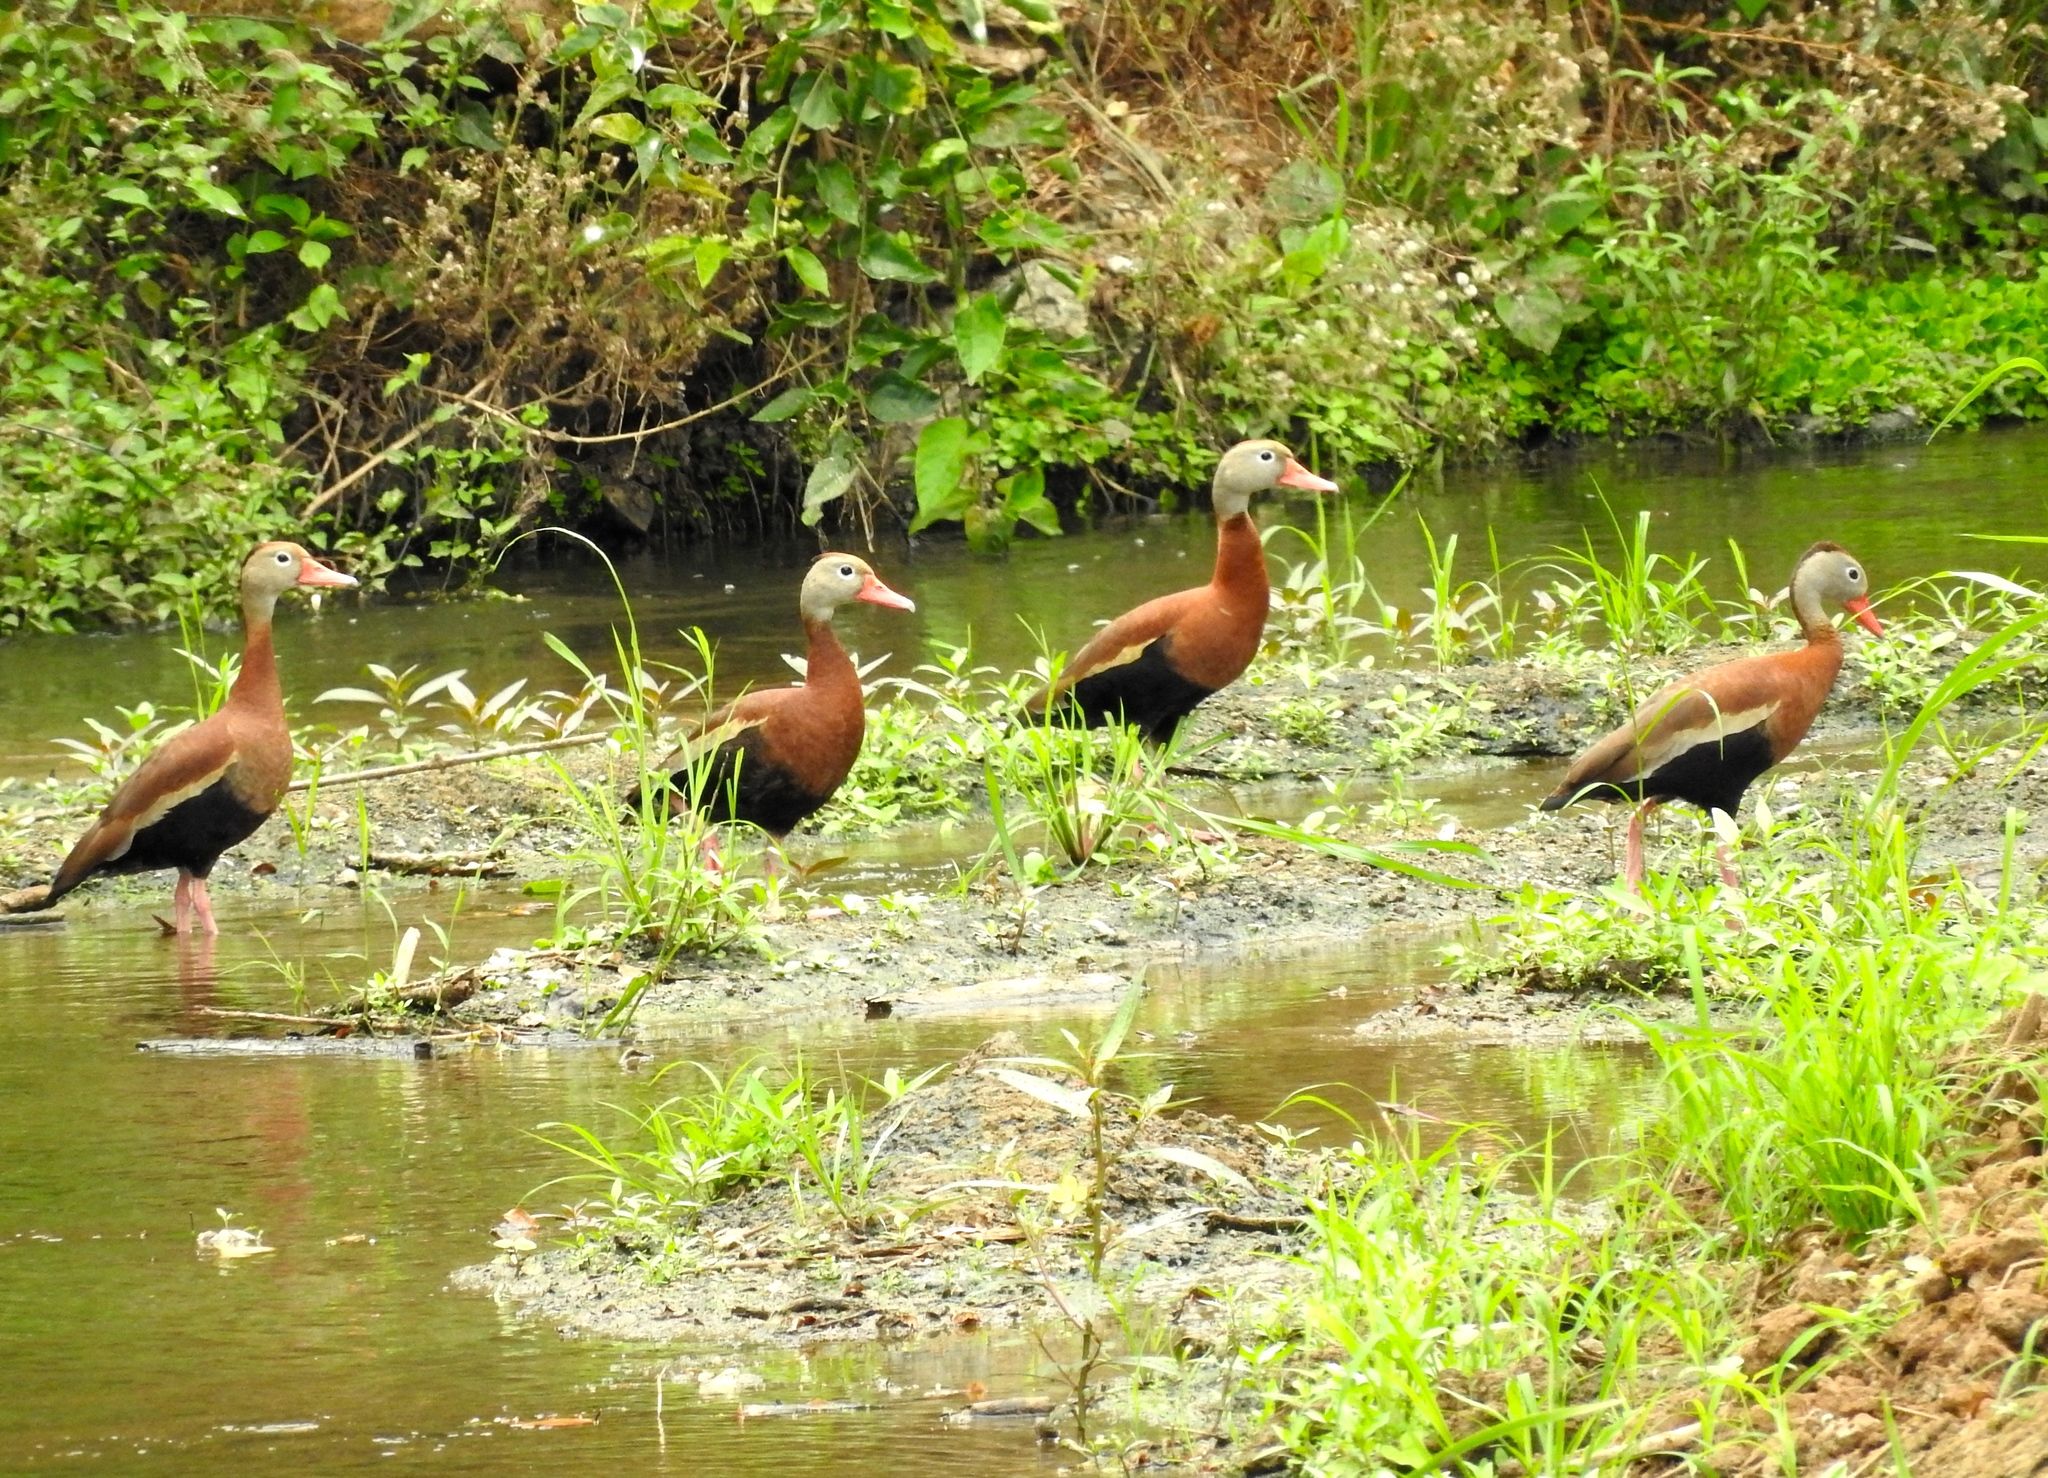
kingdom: Animalia
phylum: Chordata
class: Aves
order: Anseriformes
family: Anatidae
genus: Dendrocygna
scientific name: Dendrocygna autumnalis
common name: Black-bellied whistling duck
